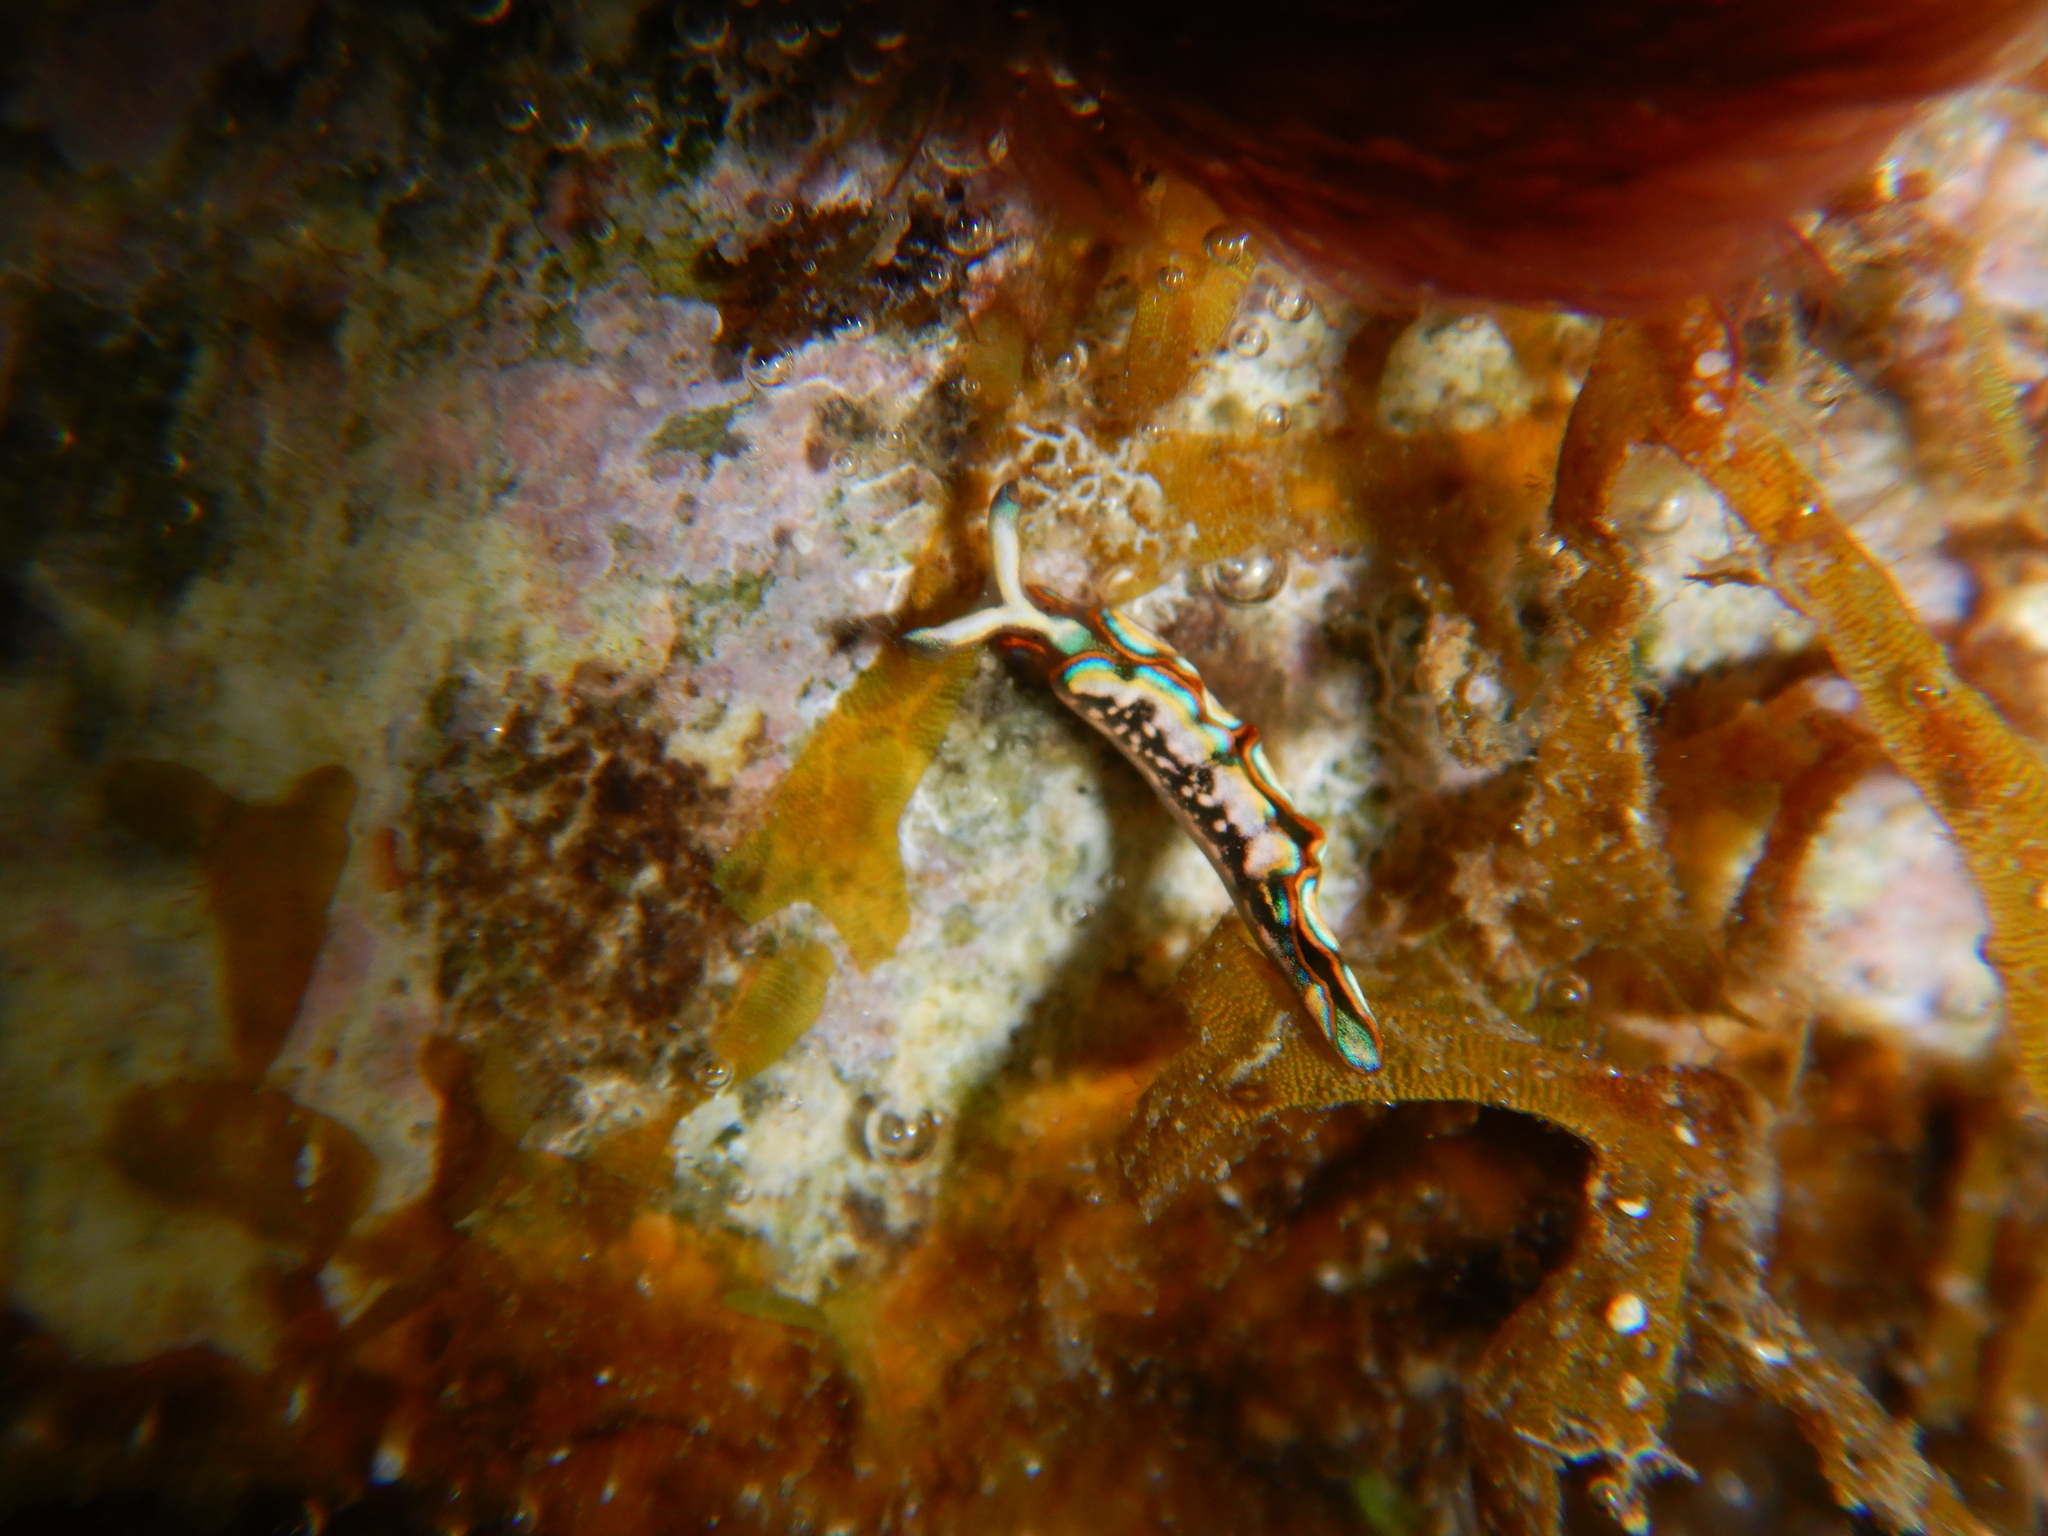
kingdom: Animalia
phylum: Mollusca
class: Gastropoda
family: Plakobranchidae
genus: Thuridilla
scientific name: Thuridilla hopei
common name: Splendid elysia
